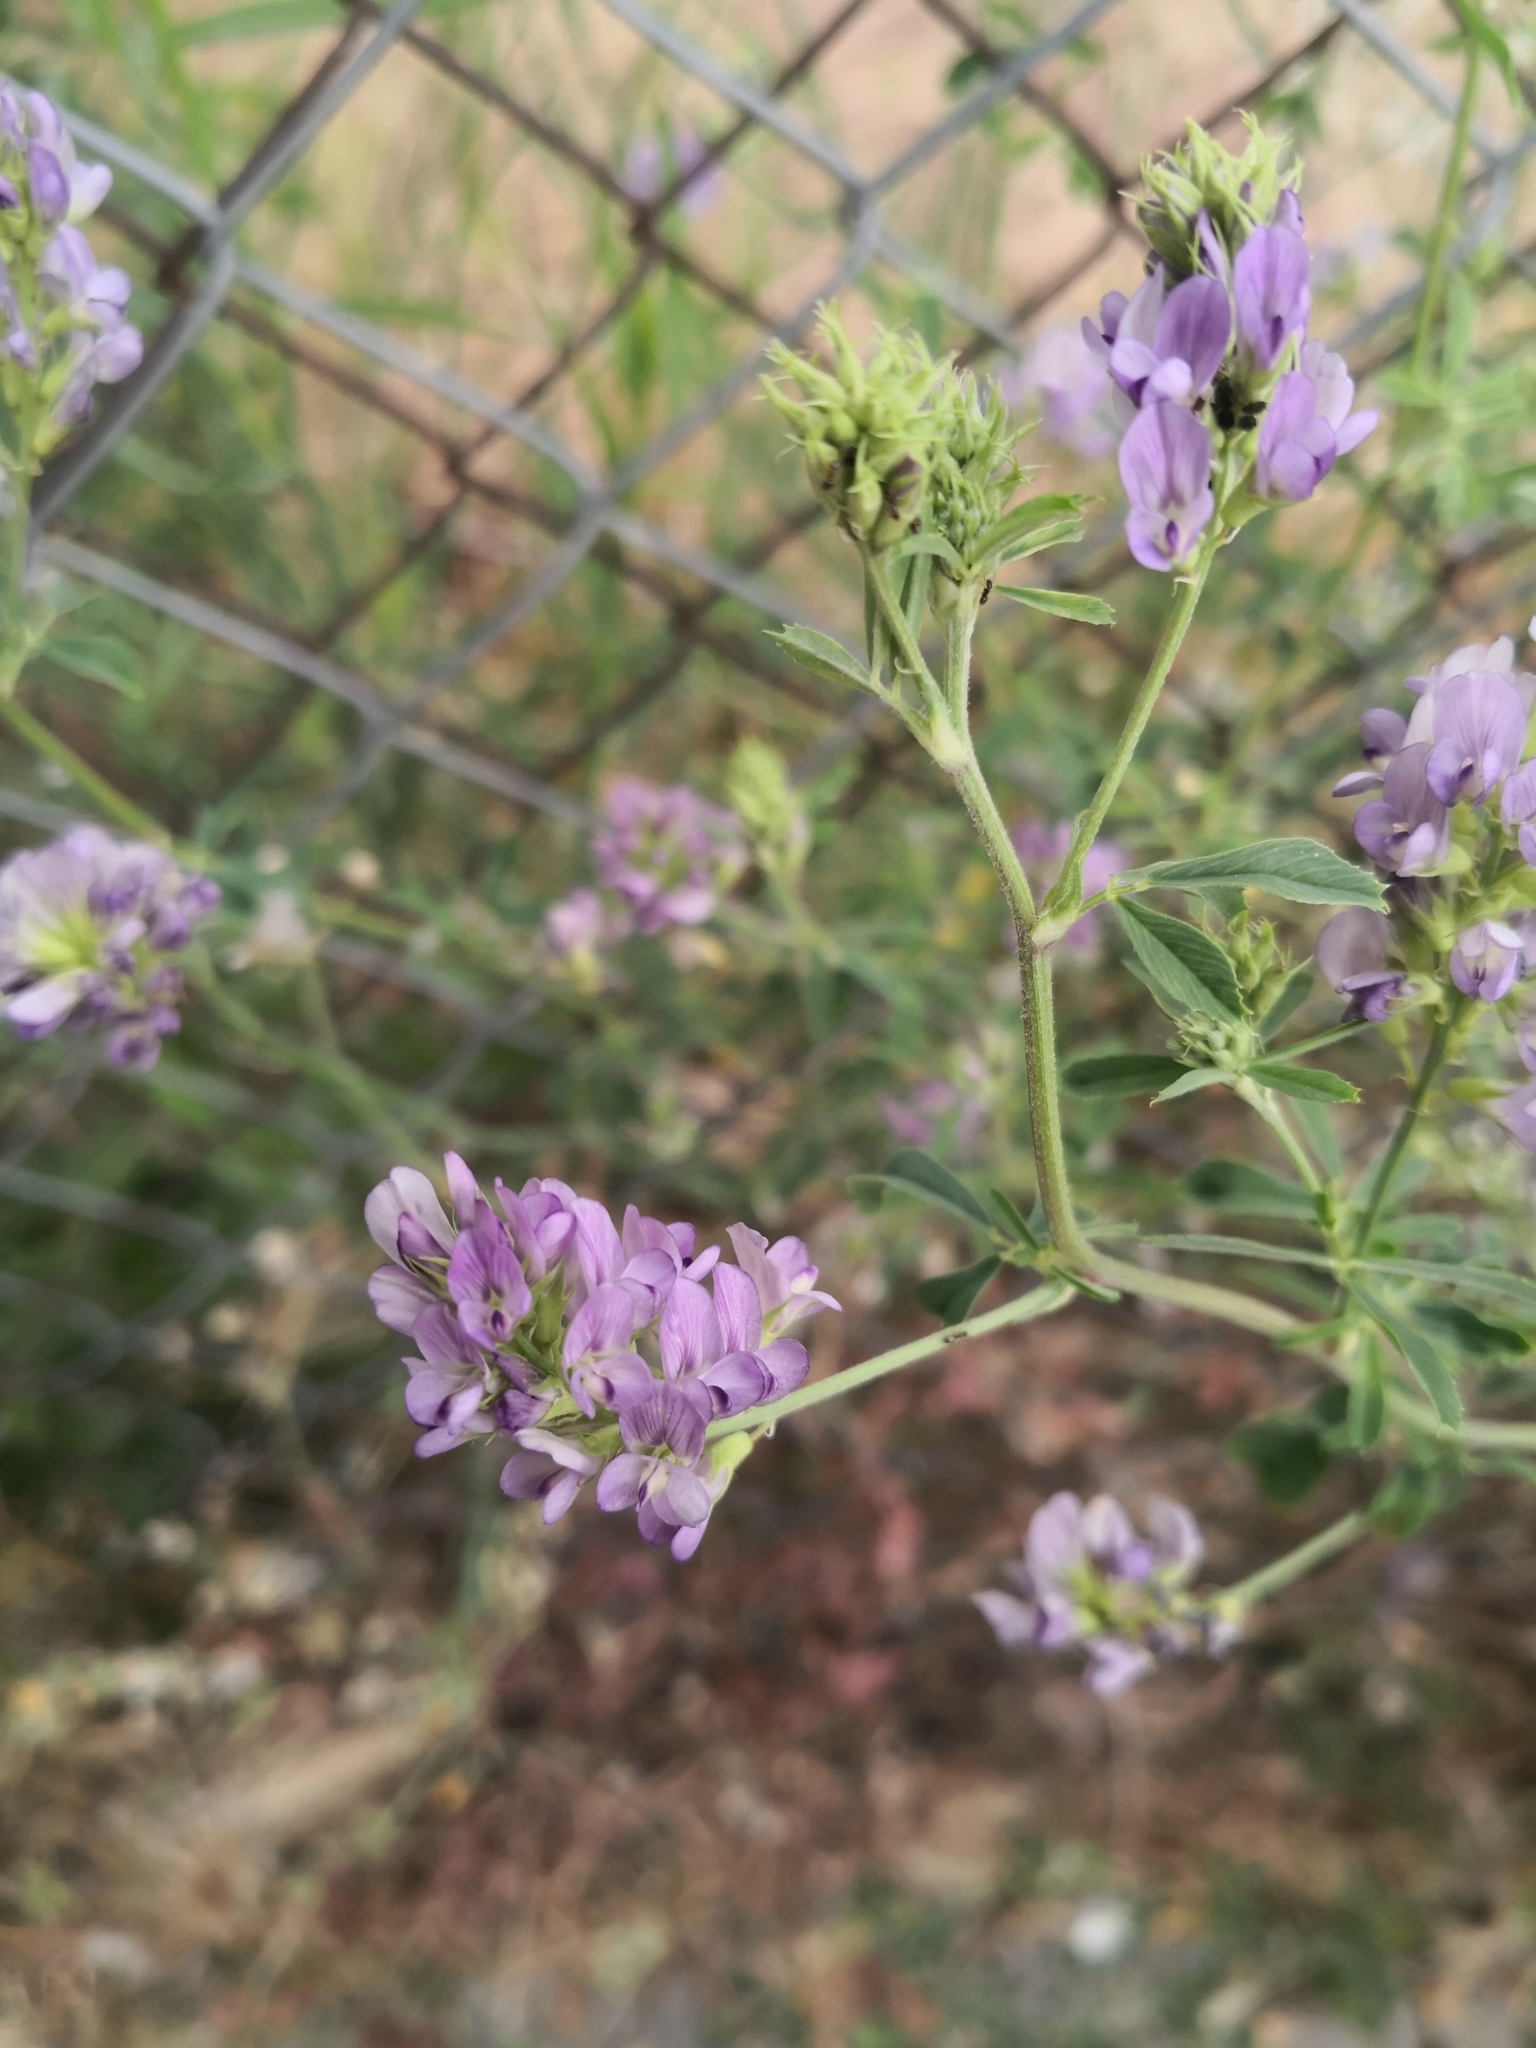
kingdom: Plantae
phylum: Tracheophyta
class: Magnoliopsida
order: Fabales
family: Fabaceae
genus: Medicago
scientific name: Medicago sativa
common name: Alfalfa
